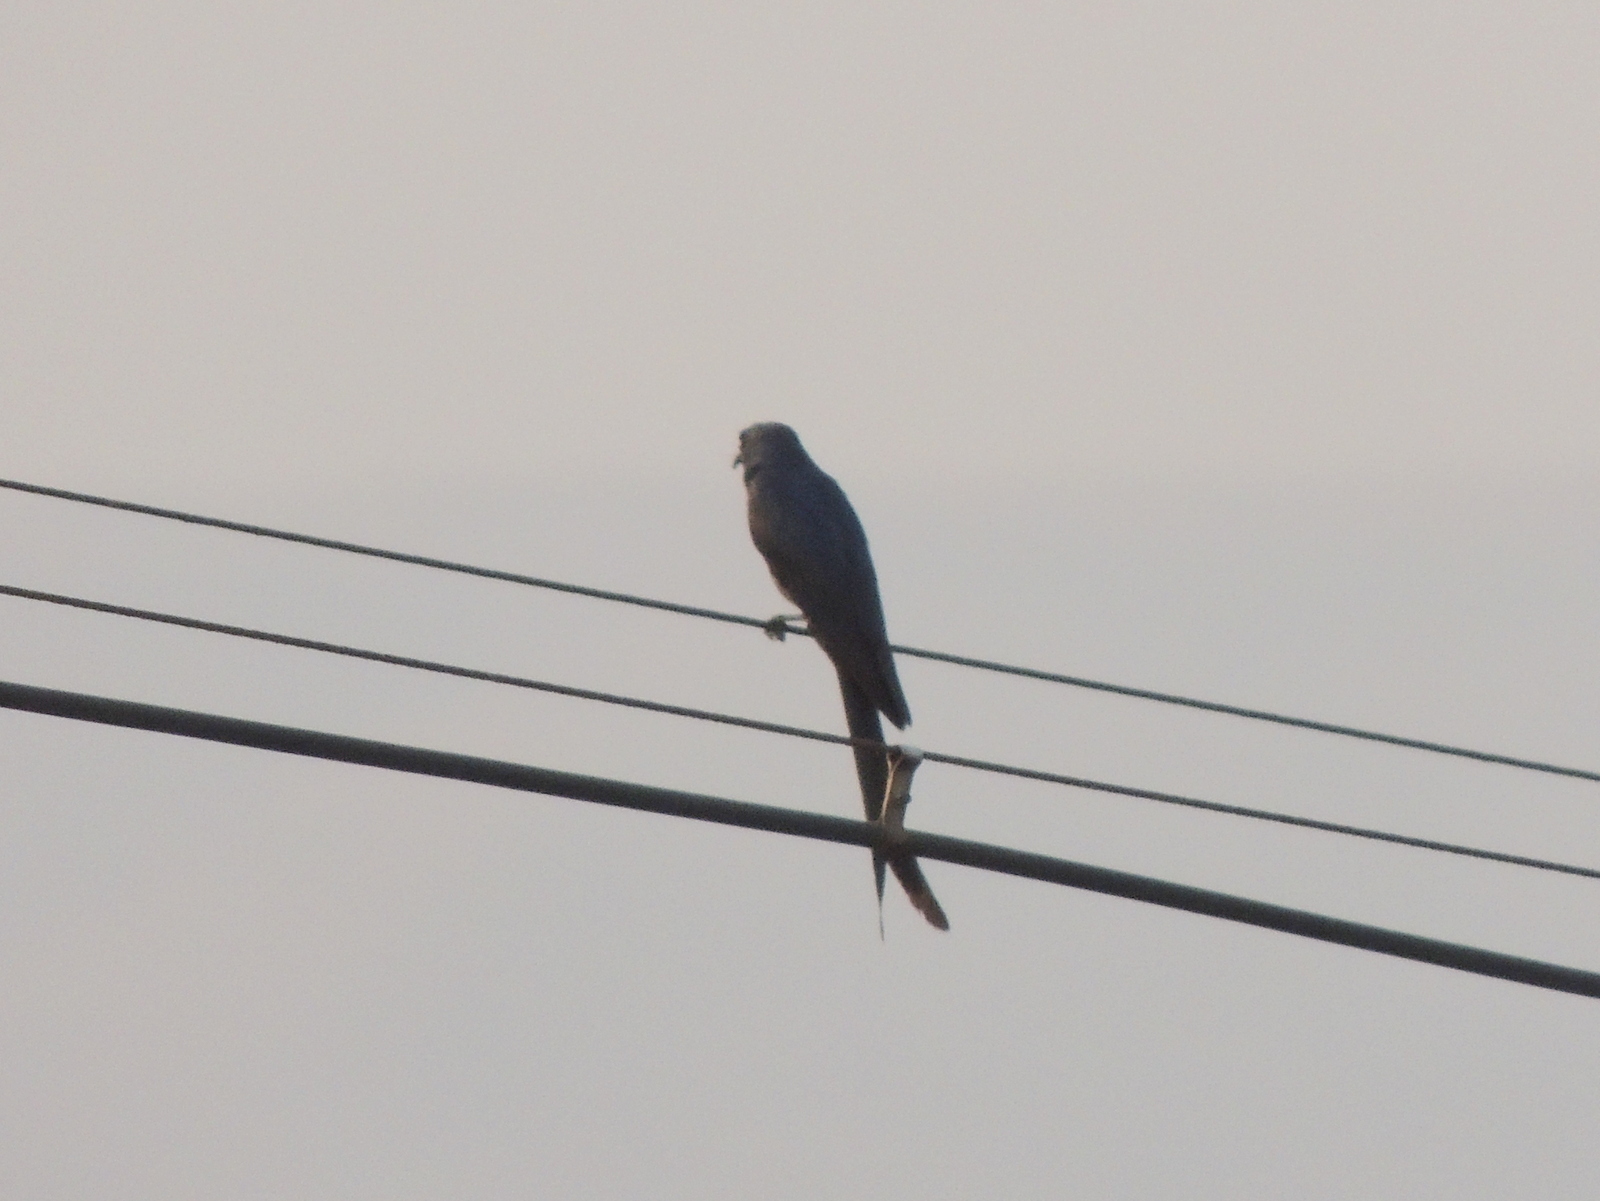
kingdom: Animalia
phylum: Chordata
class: Aves
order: Passeriformes
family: Dicruridae
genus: Dicrurus
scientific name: Dicrurus leucophaeus
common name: Ashy drongo
